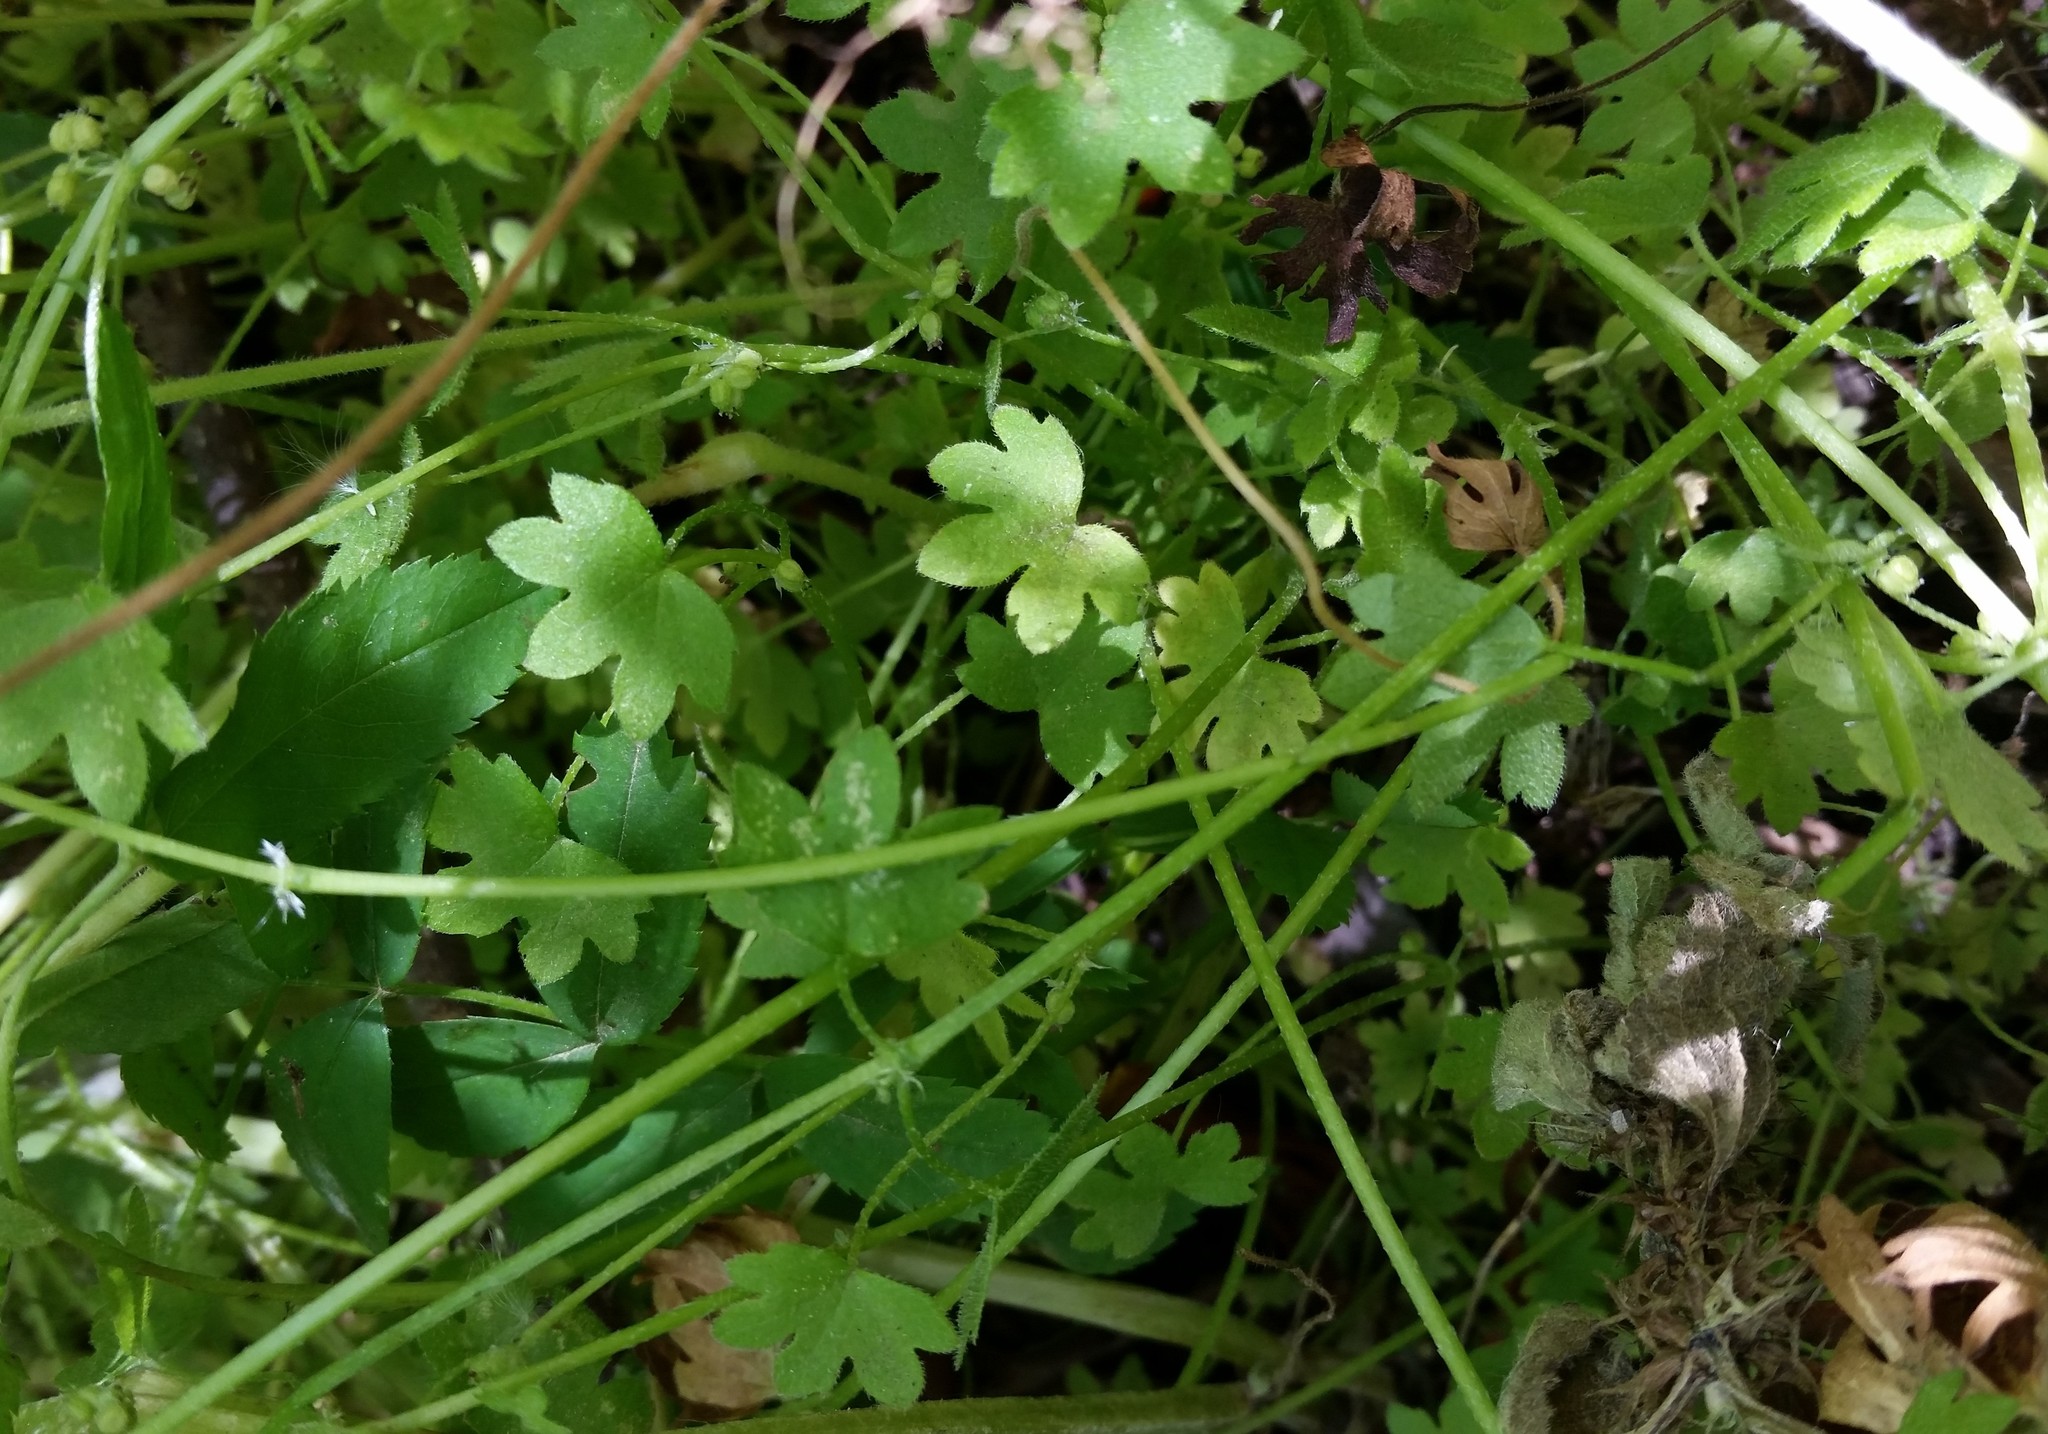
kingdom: Plantae
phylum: Tracheophyta
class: Magnoliopsida
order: Apiales
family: Apiaceae
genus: Bowlesia
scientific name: Bowlesia incana
